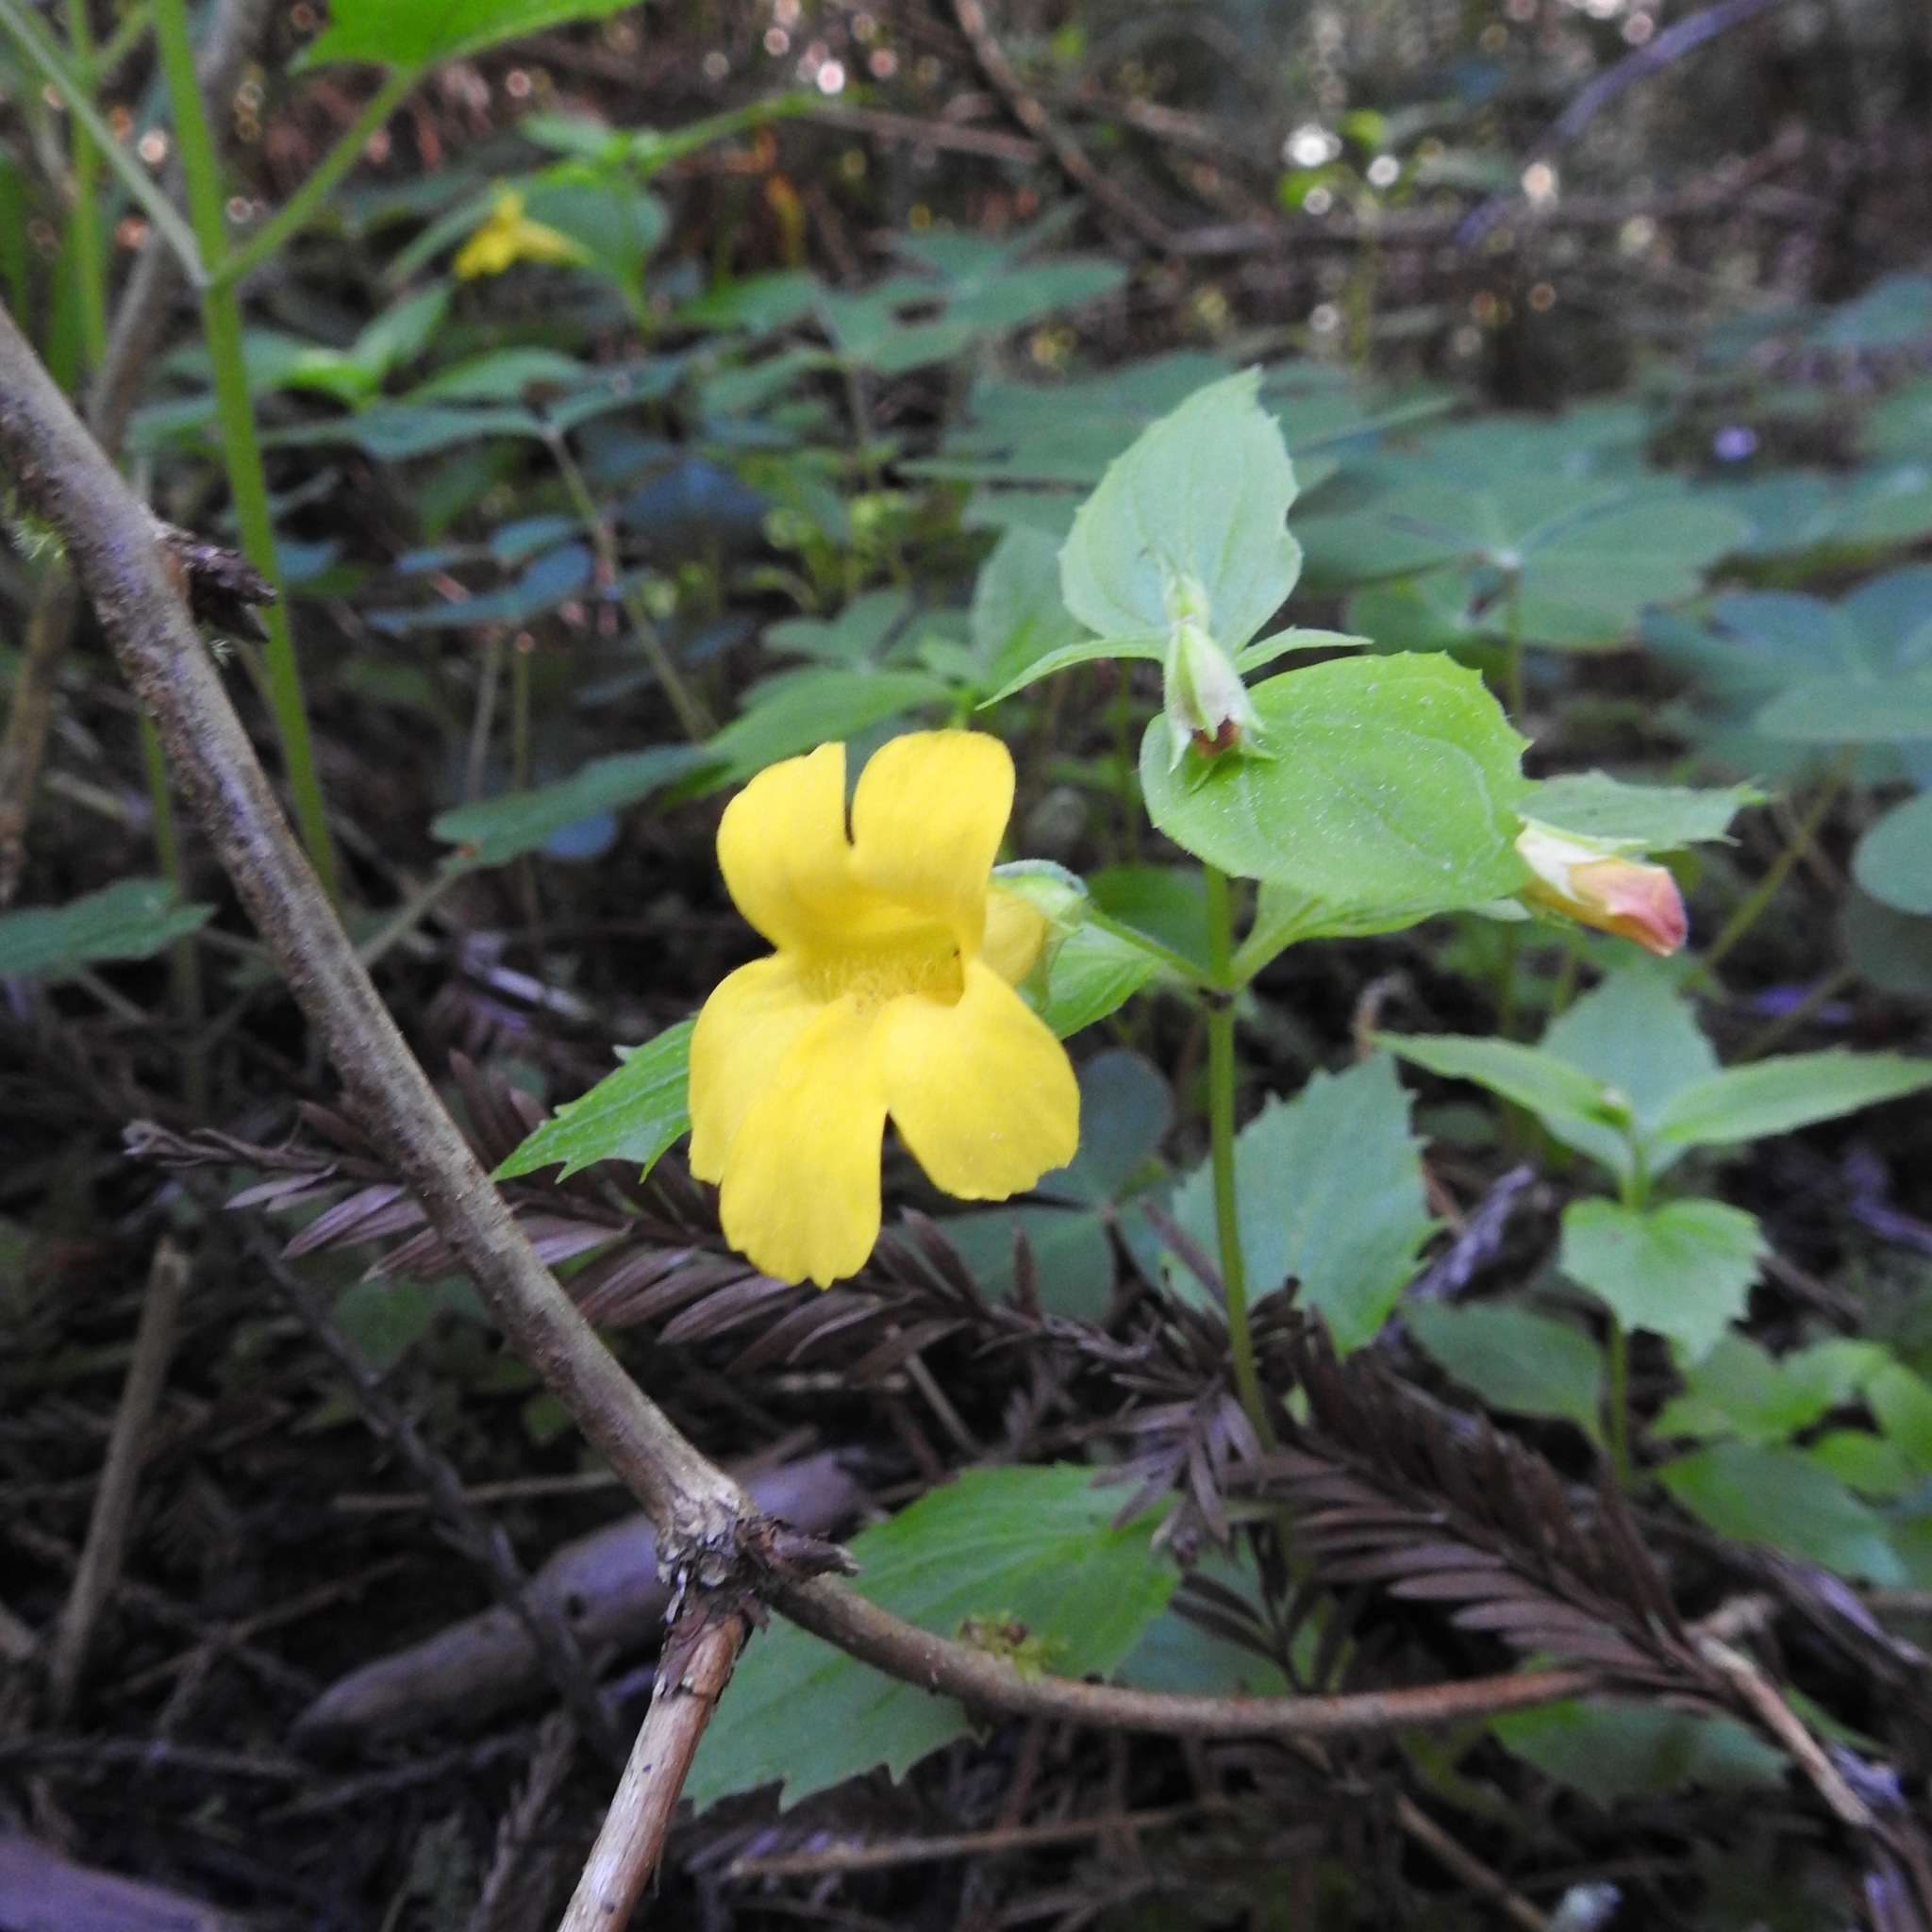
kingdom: Plantae
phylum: Tracheophyta
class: Magnoliopsida
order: Lamiales
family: Phrymaceae
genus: Erythranthe
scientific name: Erythranthe dentata
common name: Coastal monkeyflower
